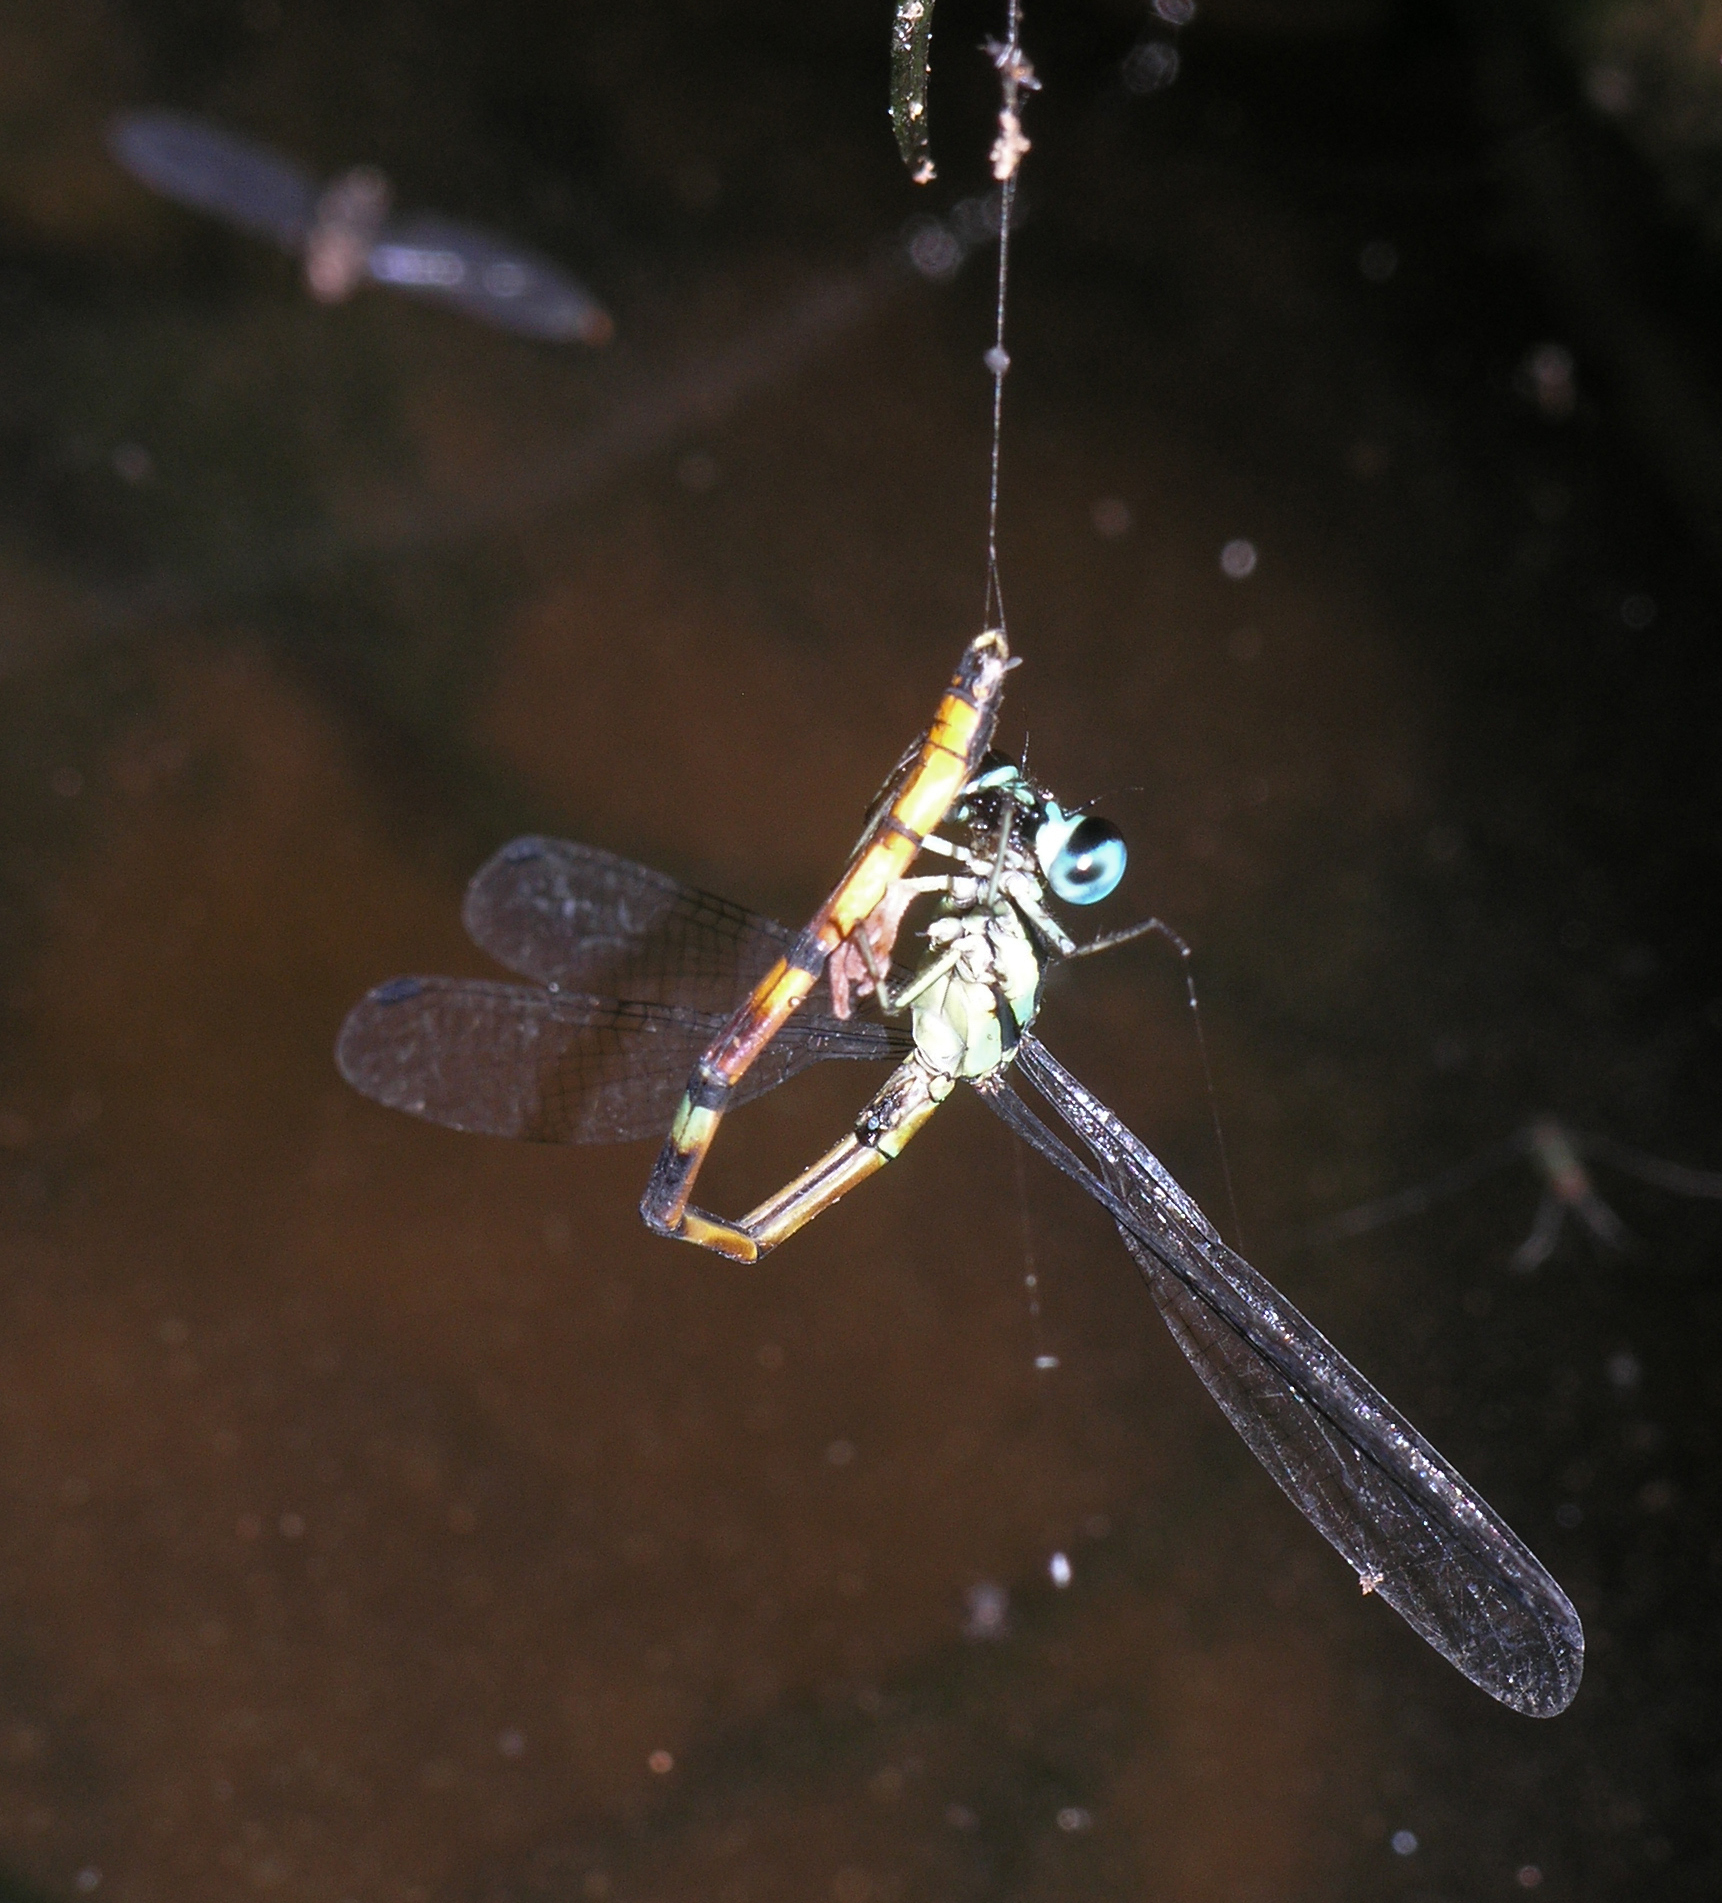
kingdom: Animalia
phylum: Arthropoda
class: Insecta
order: Odonata
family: Philosinidae
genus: Rhinagrion
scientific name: Rhinagrion viridatum
